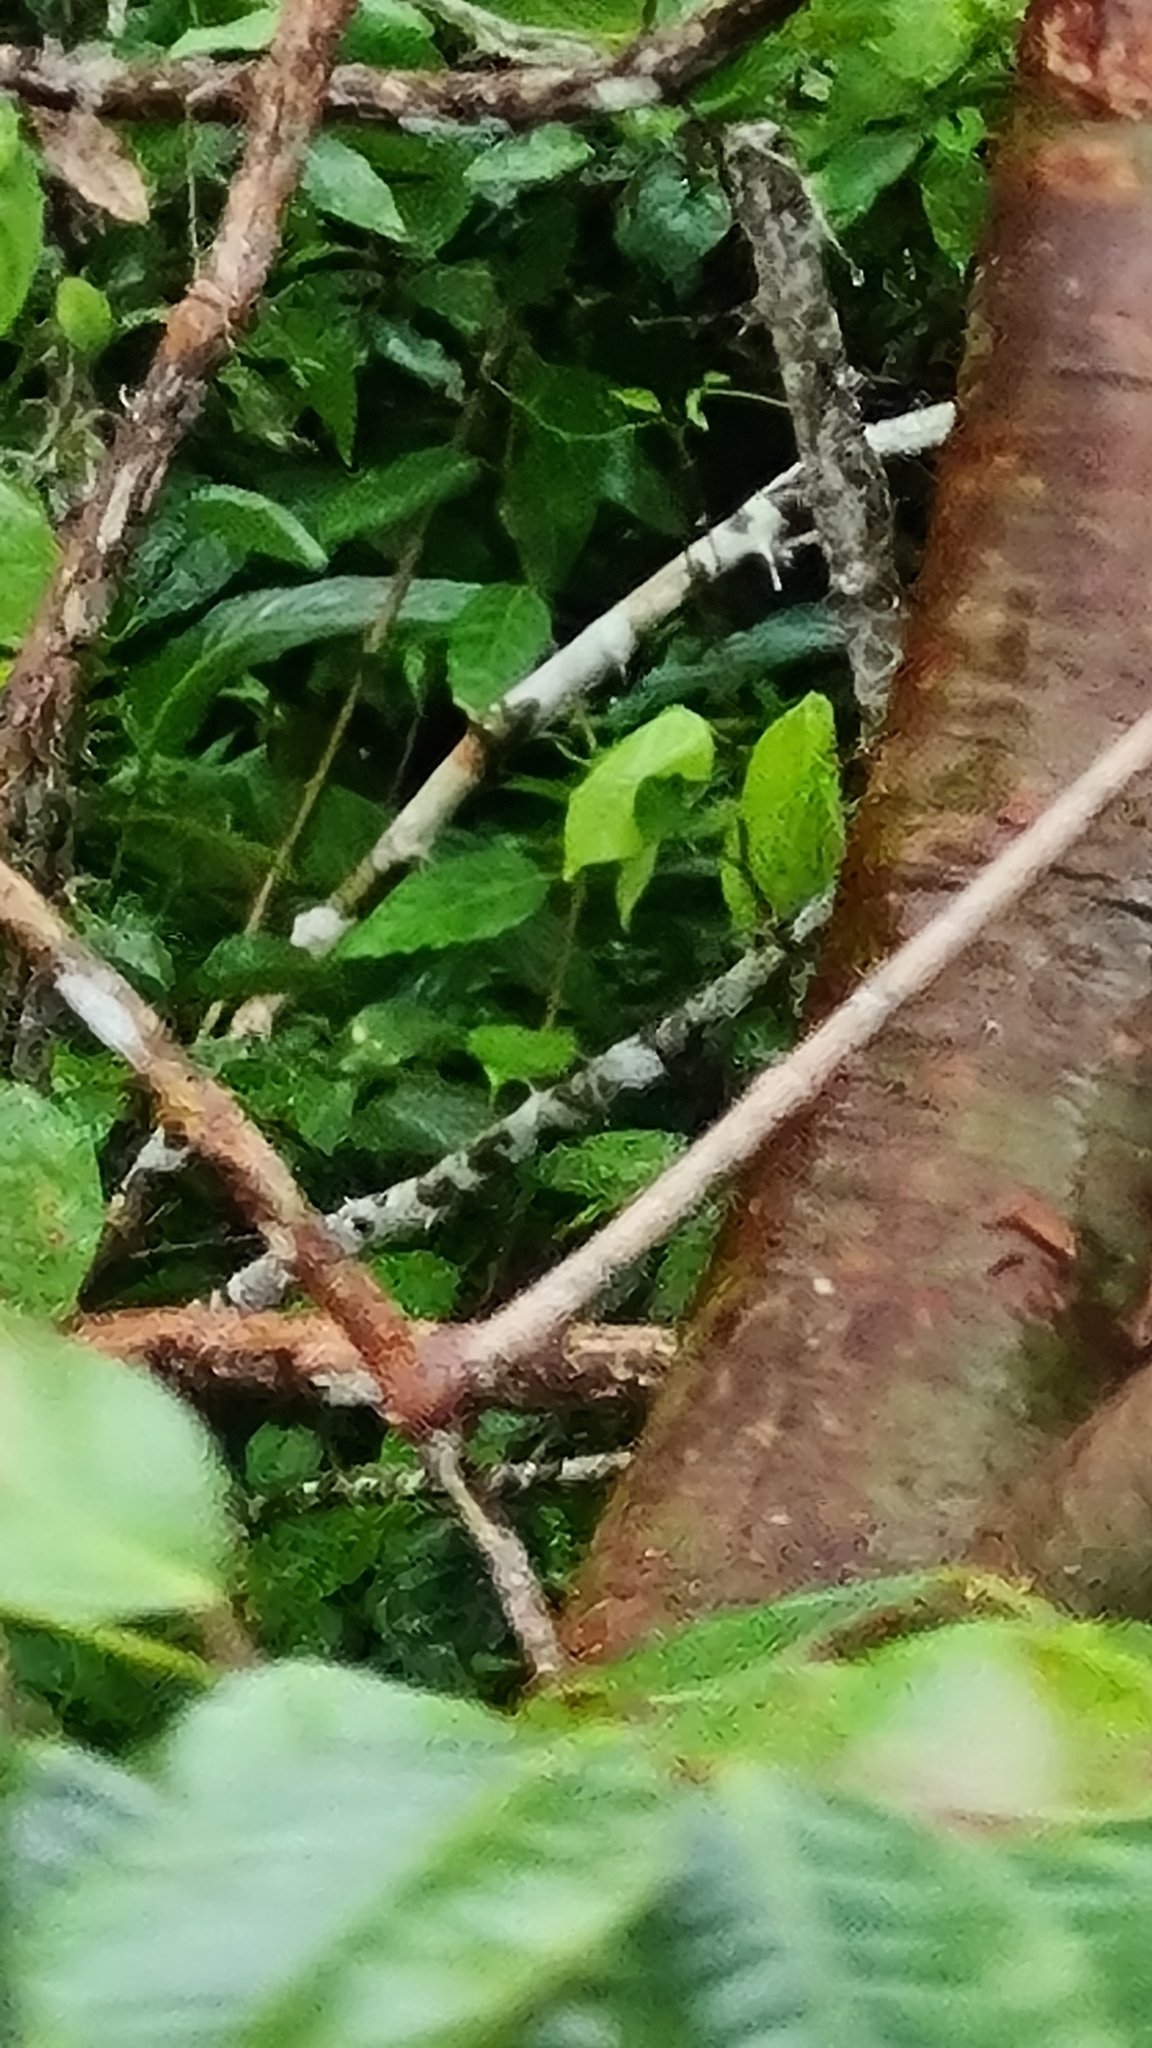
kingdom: Plantae
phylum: Tracheophyta
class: Magnoliopsida
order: Sapindales
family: Burseraceae
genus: Bursera
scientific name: Bursera simaruba
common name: Turpentine tree
